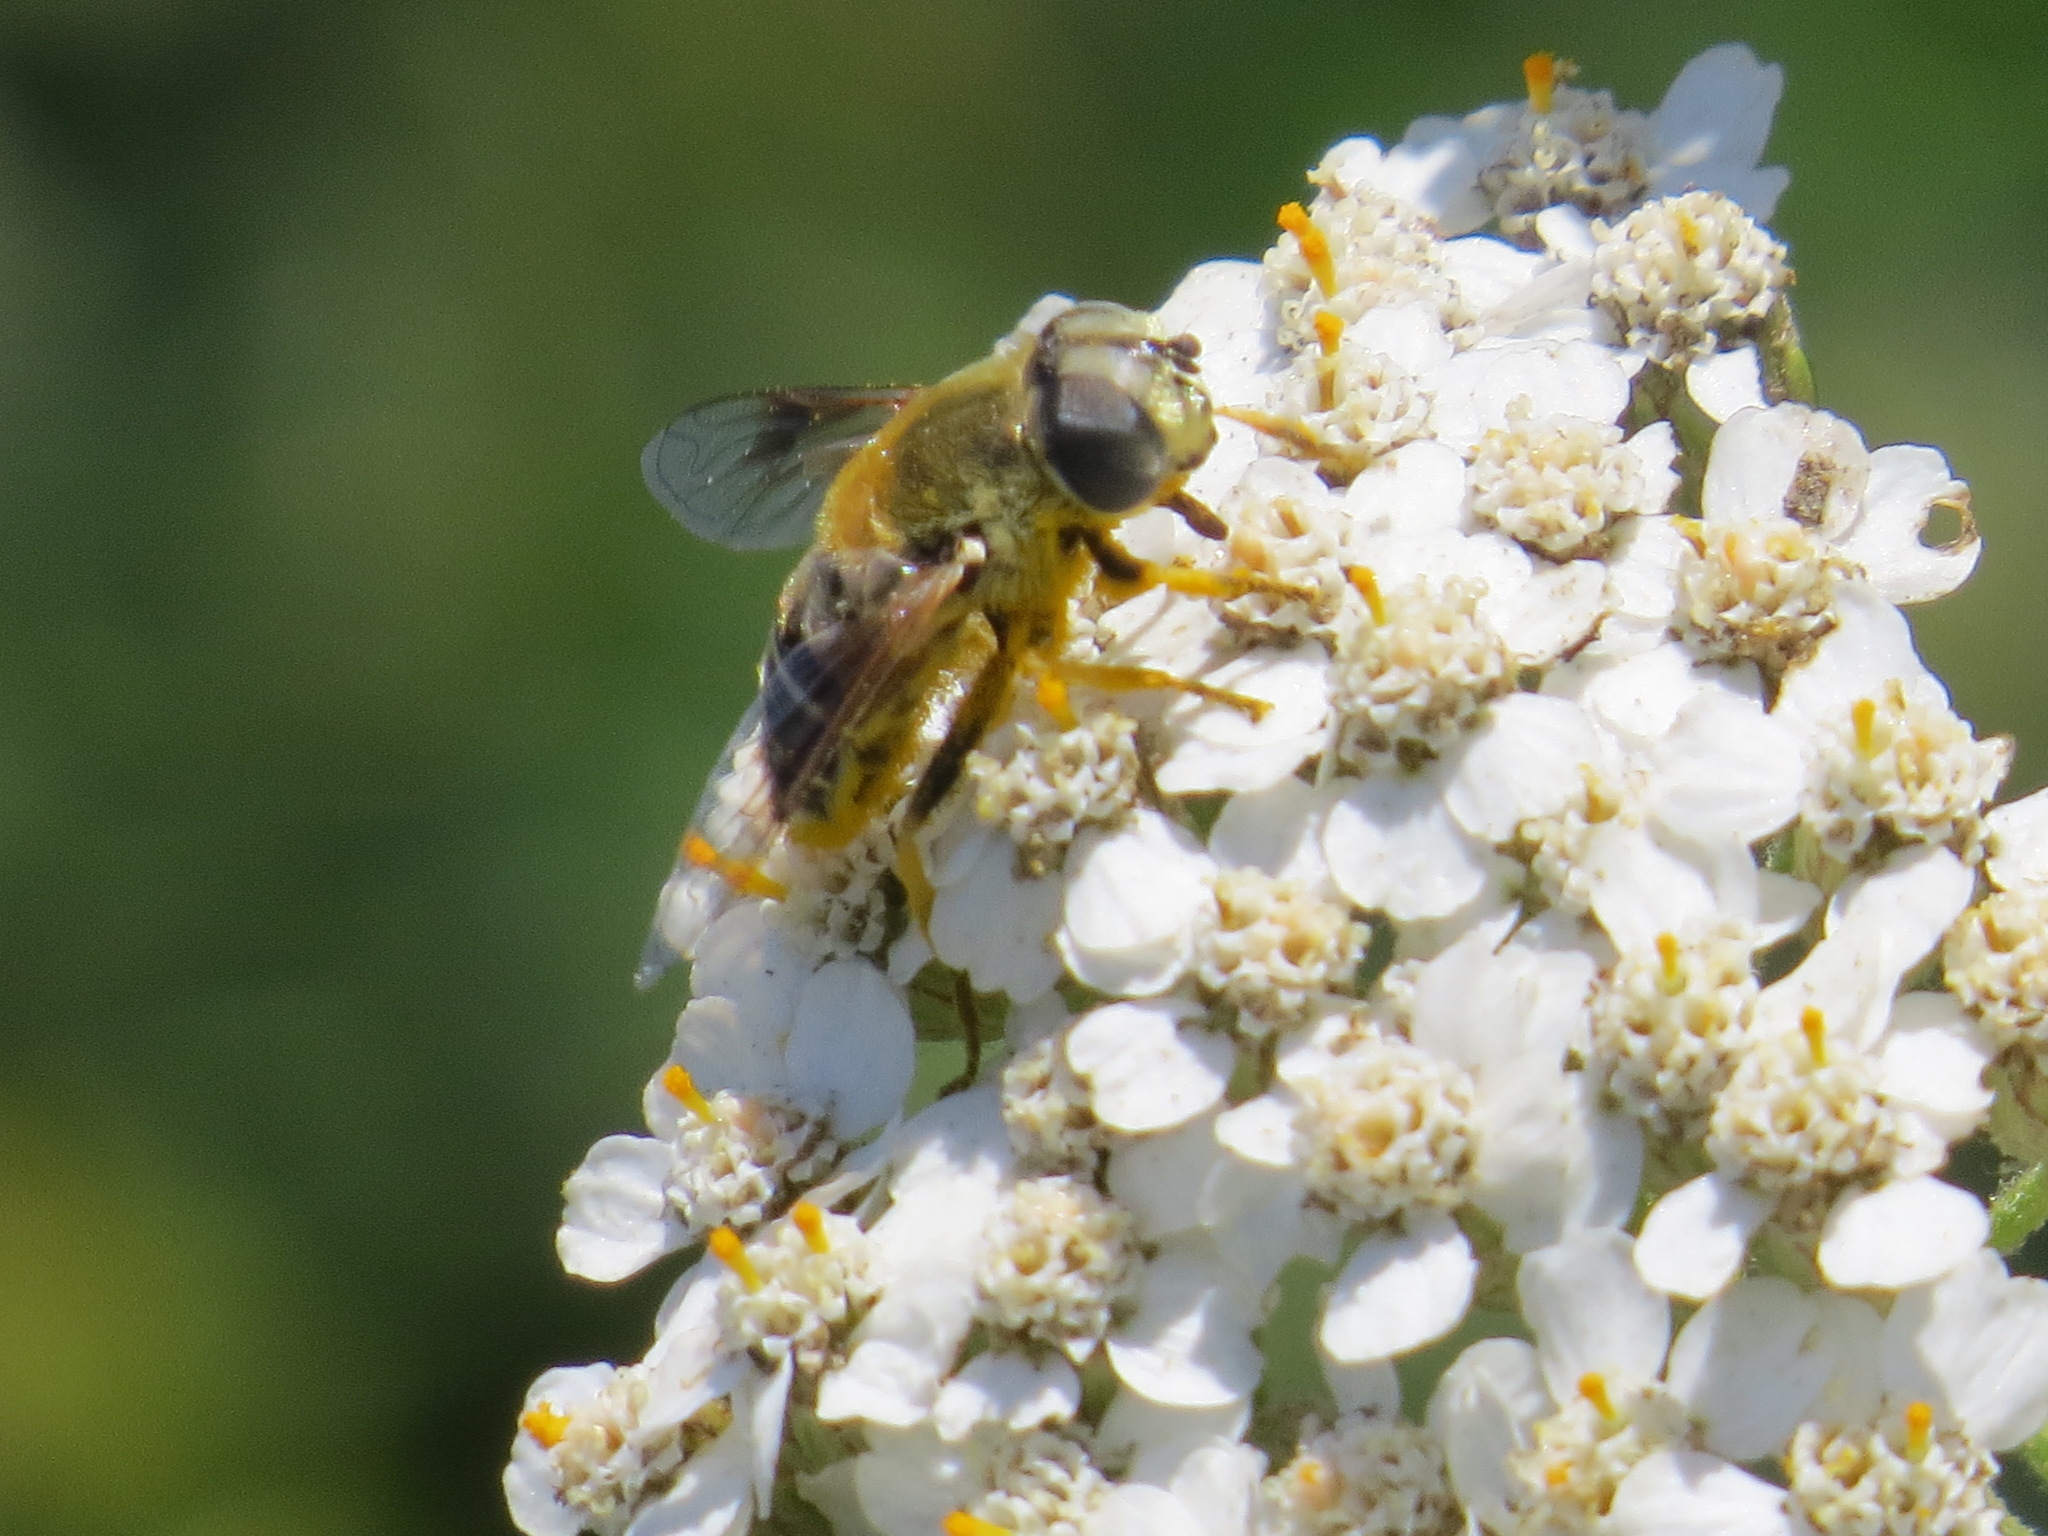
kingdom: Animalia
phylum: Arthropoda
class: Insecta
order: Diptera
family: Syrphidae
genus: Eristalis
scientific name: Eristalis stipator
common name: Yellow-shouldered drone fly
